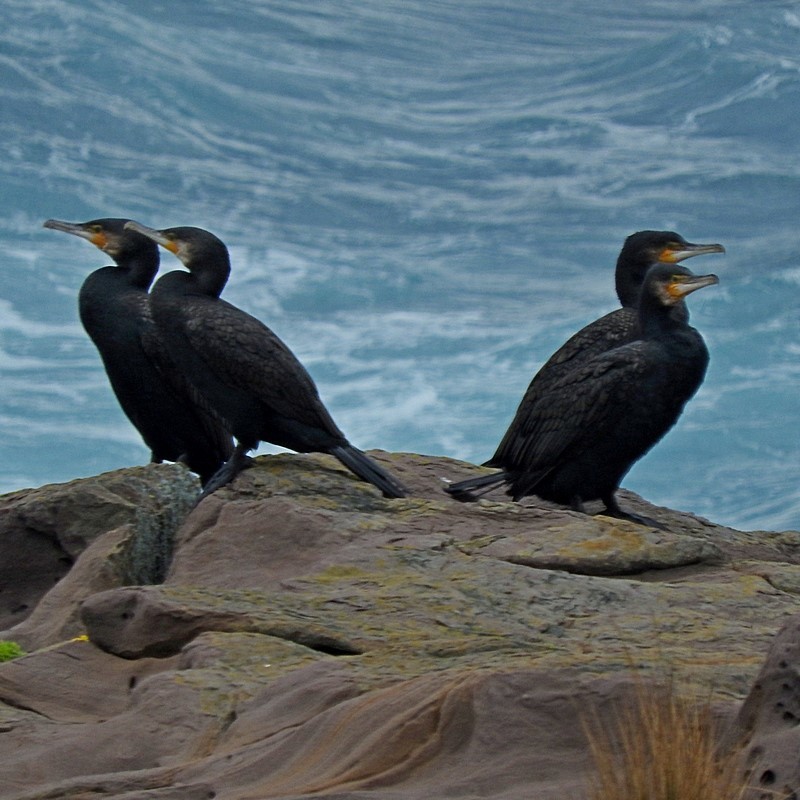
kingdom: Animalia
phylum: Chordata
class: Aves
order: Suliformes
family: Phalacrocoracidae
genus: Phalacrocorax
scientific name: Phalacrocorax carbo
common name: Great cormorant
